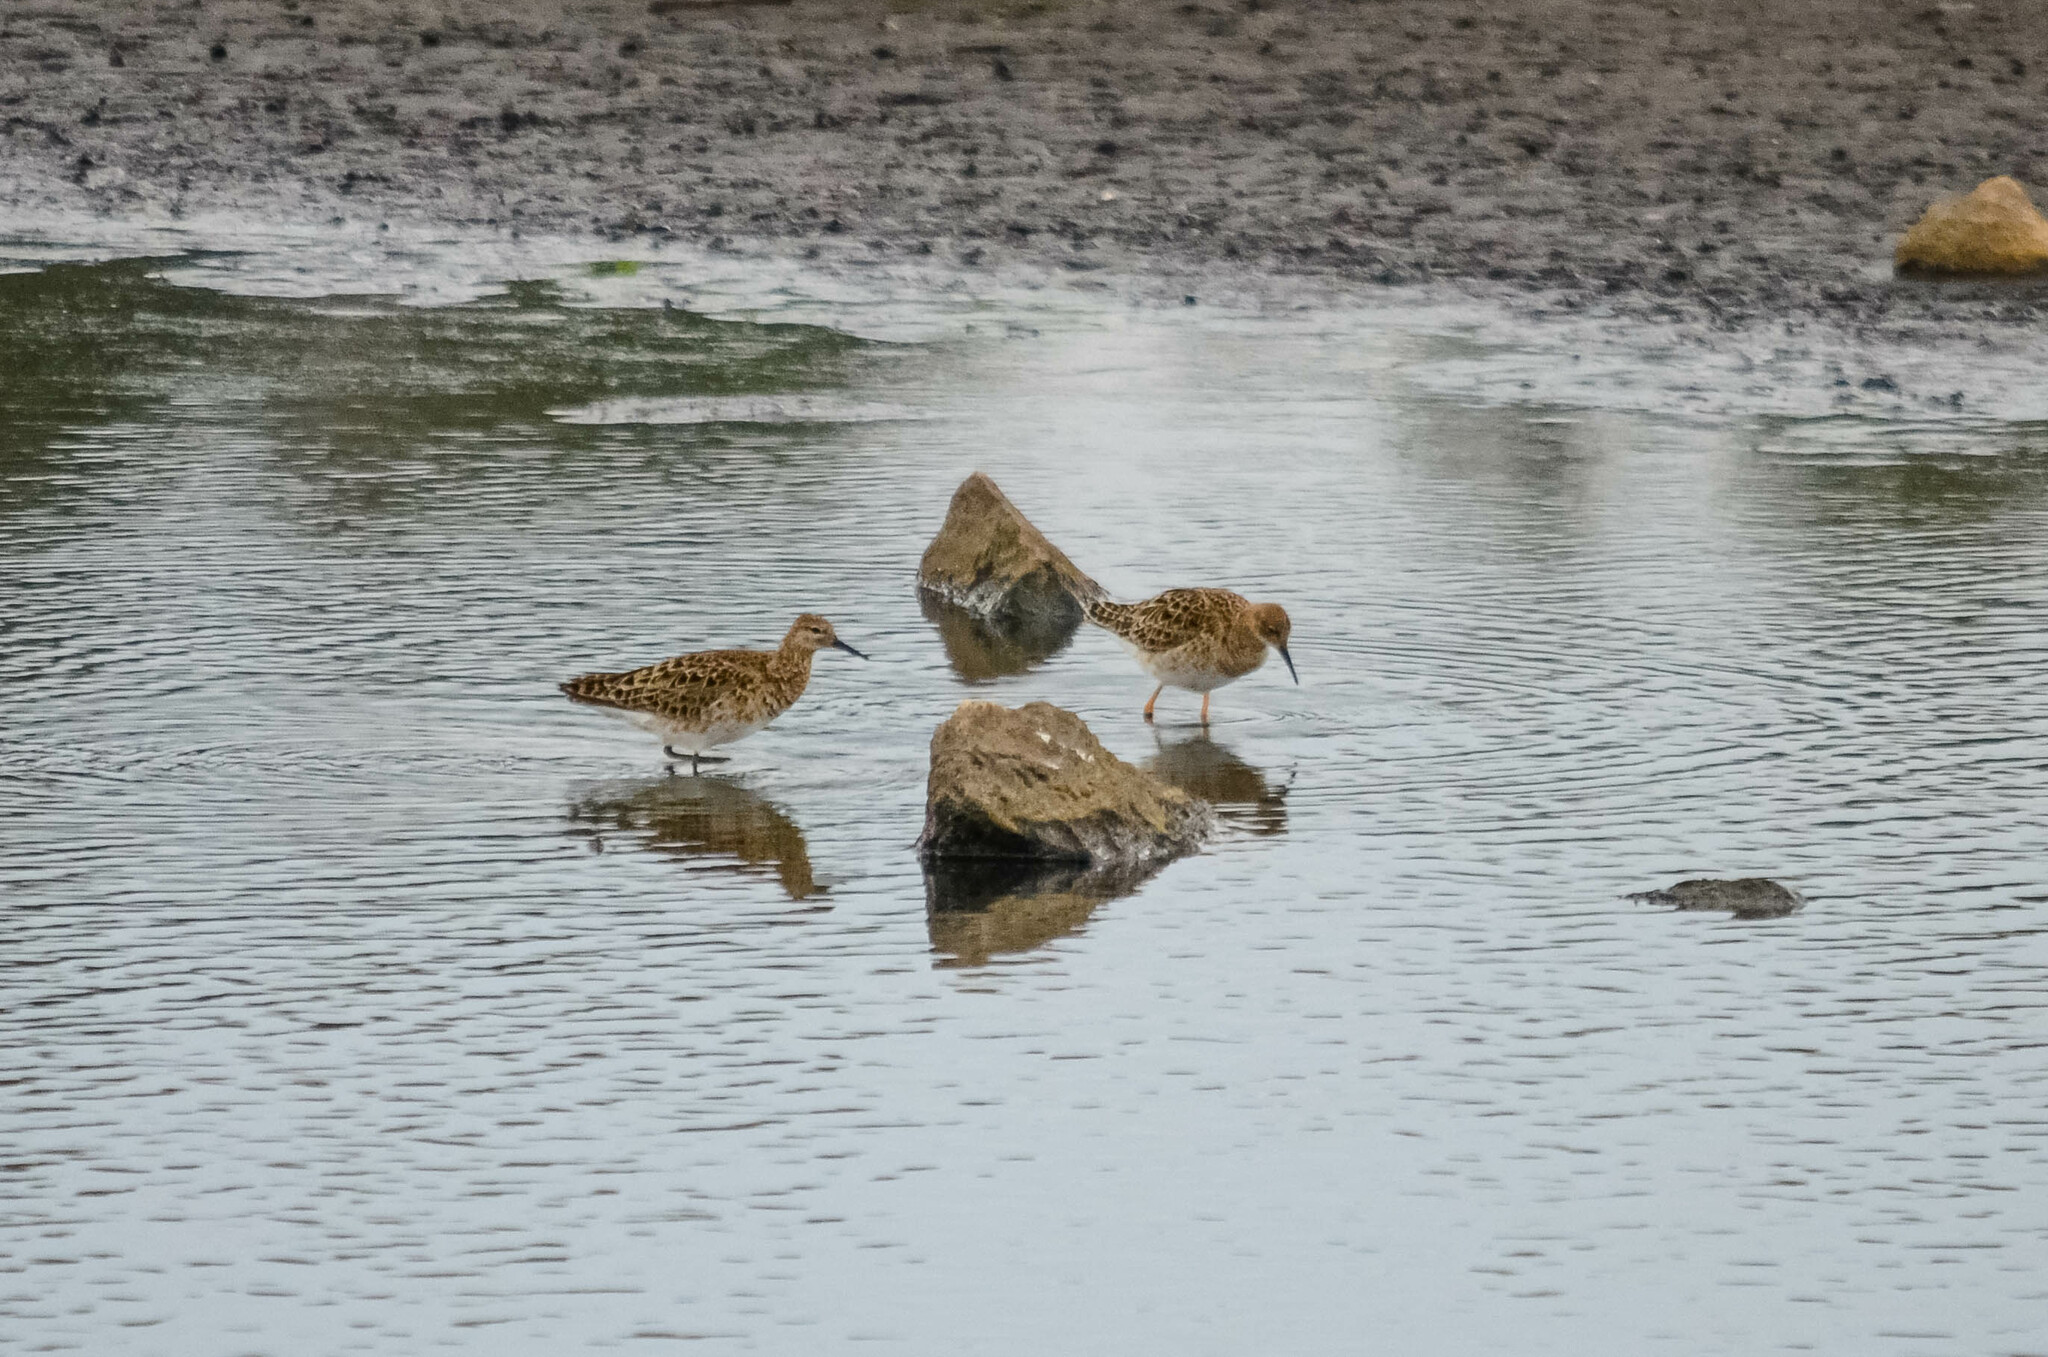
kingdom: Animalia
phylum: Chordata
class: Aves
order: Charadriiformes
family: Scolopacidae
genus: Calidris
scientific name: Calidris pugnax
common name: Ruff
